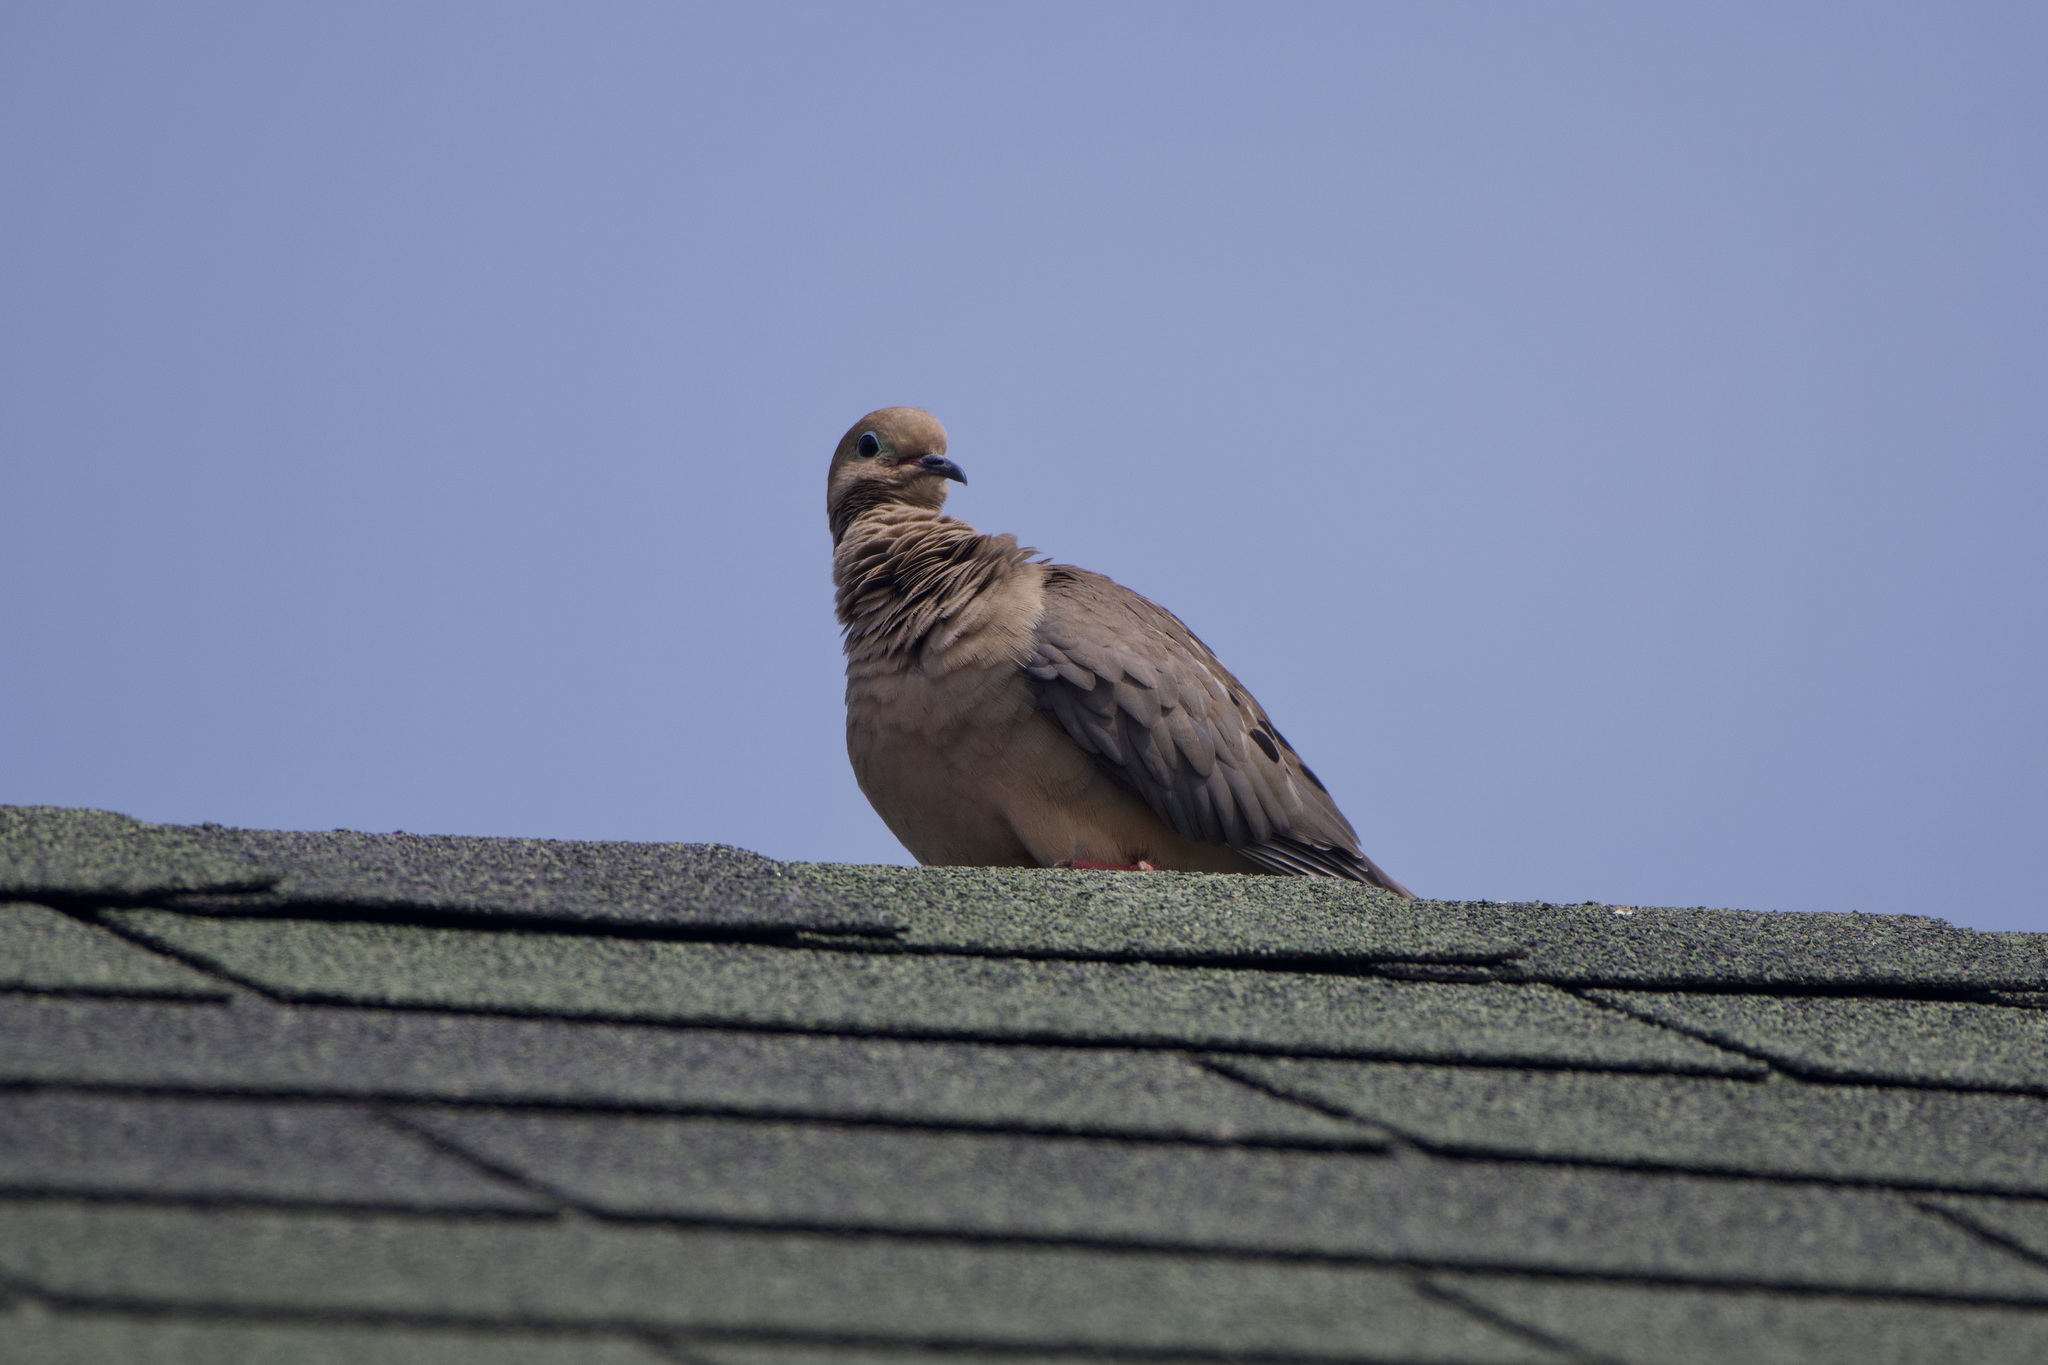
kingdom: Animalia
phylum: Chordata
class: Aves
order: Columbiformes
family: Columbidae
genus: Zenaida
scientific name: Zenaida macroura
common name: Mourning dove
